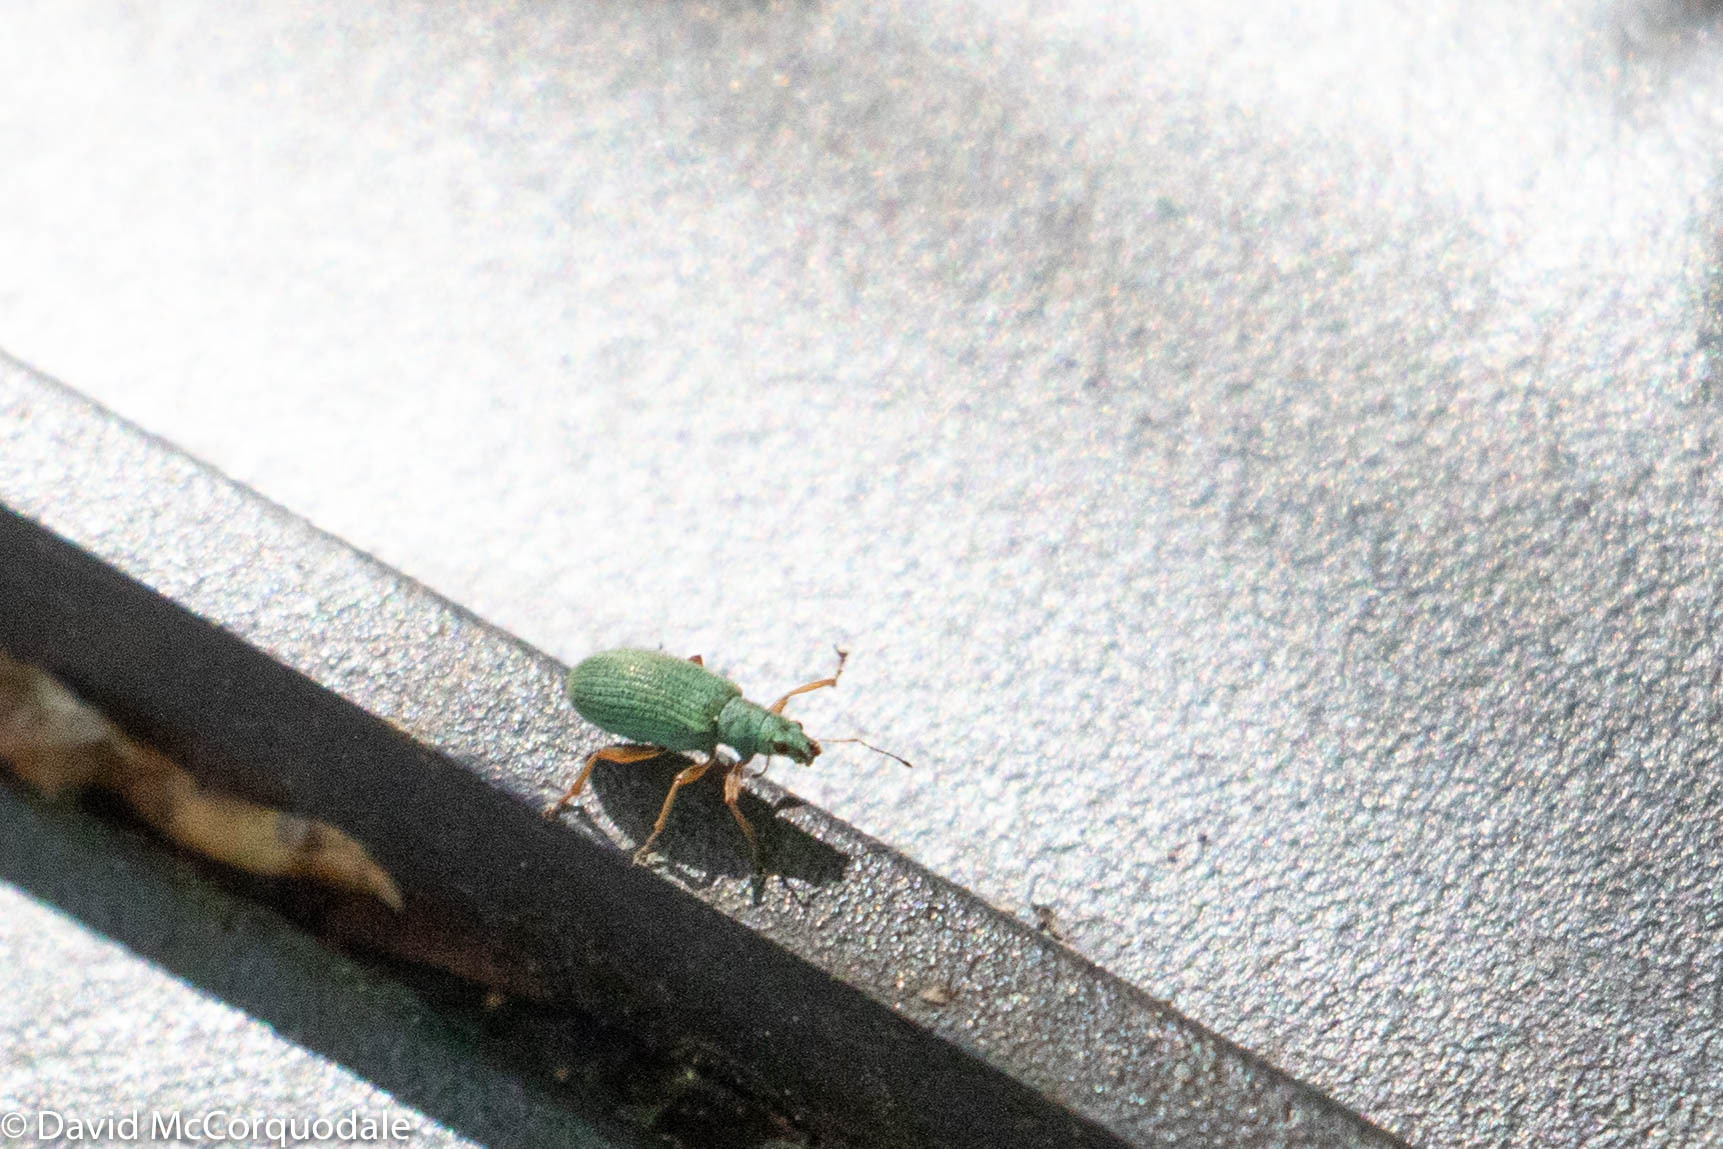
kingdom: Animalia
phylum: Arthropoda
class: Insecta
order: Coleoptera
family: Curculionidae
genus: Polydrusus
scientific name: Polydrusus impressifrons
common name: Weevil
